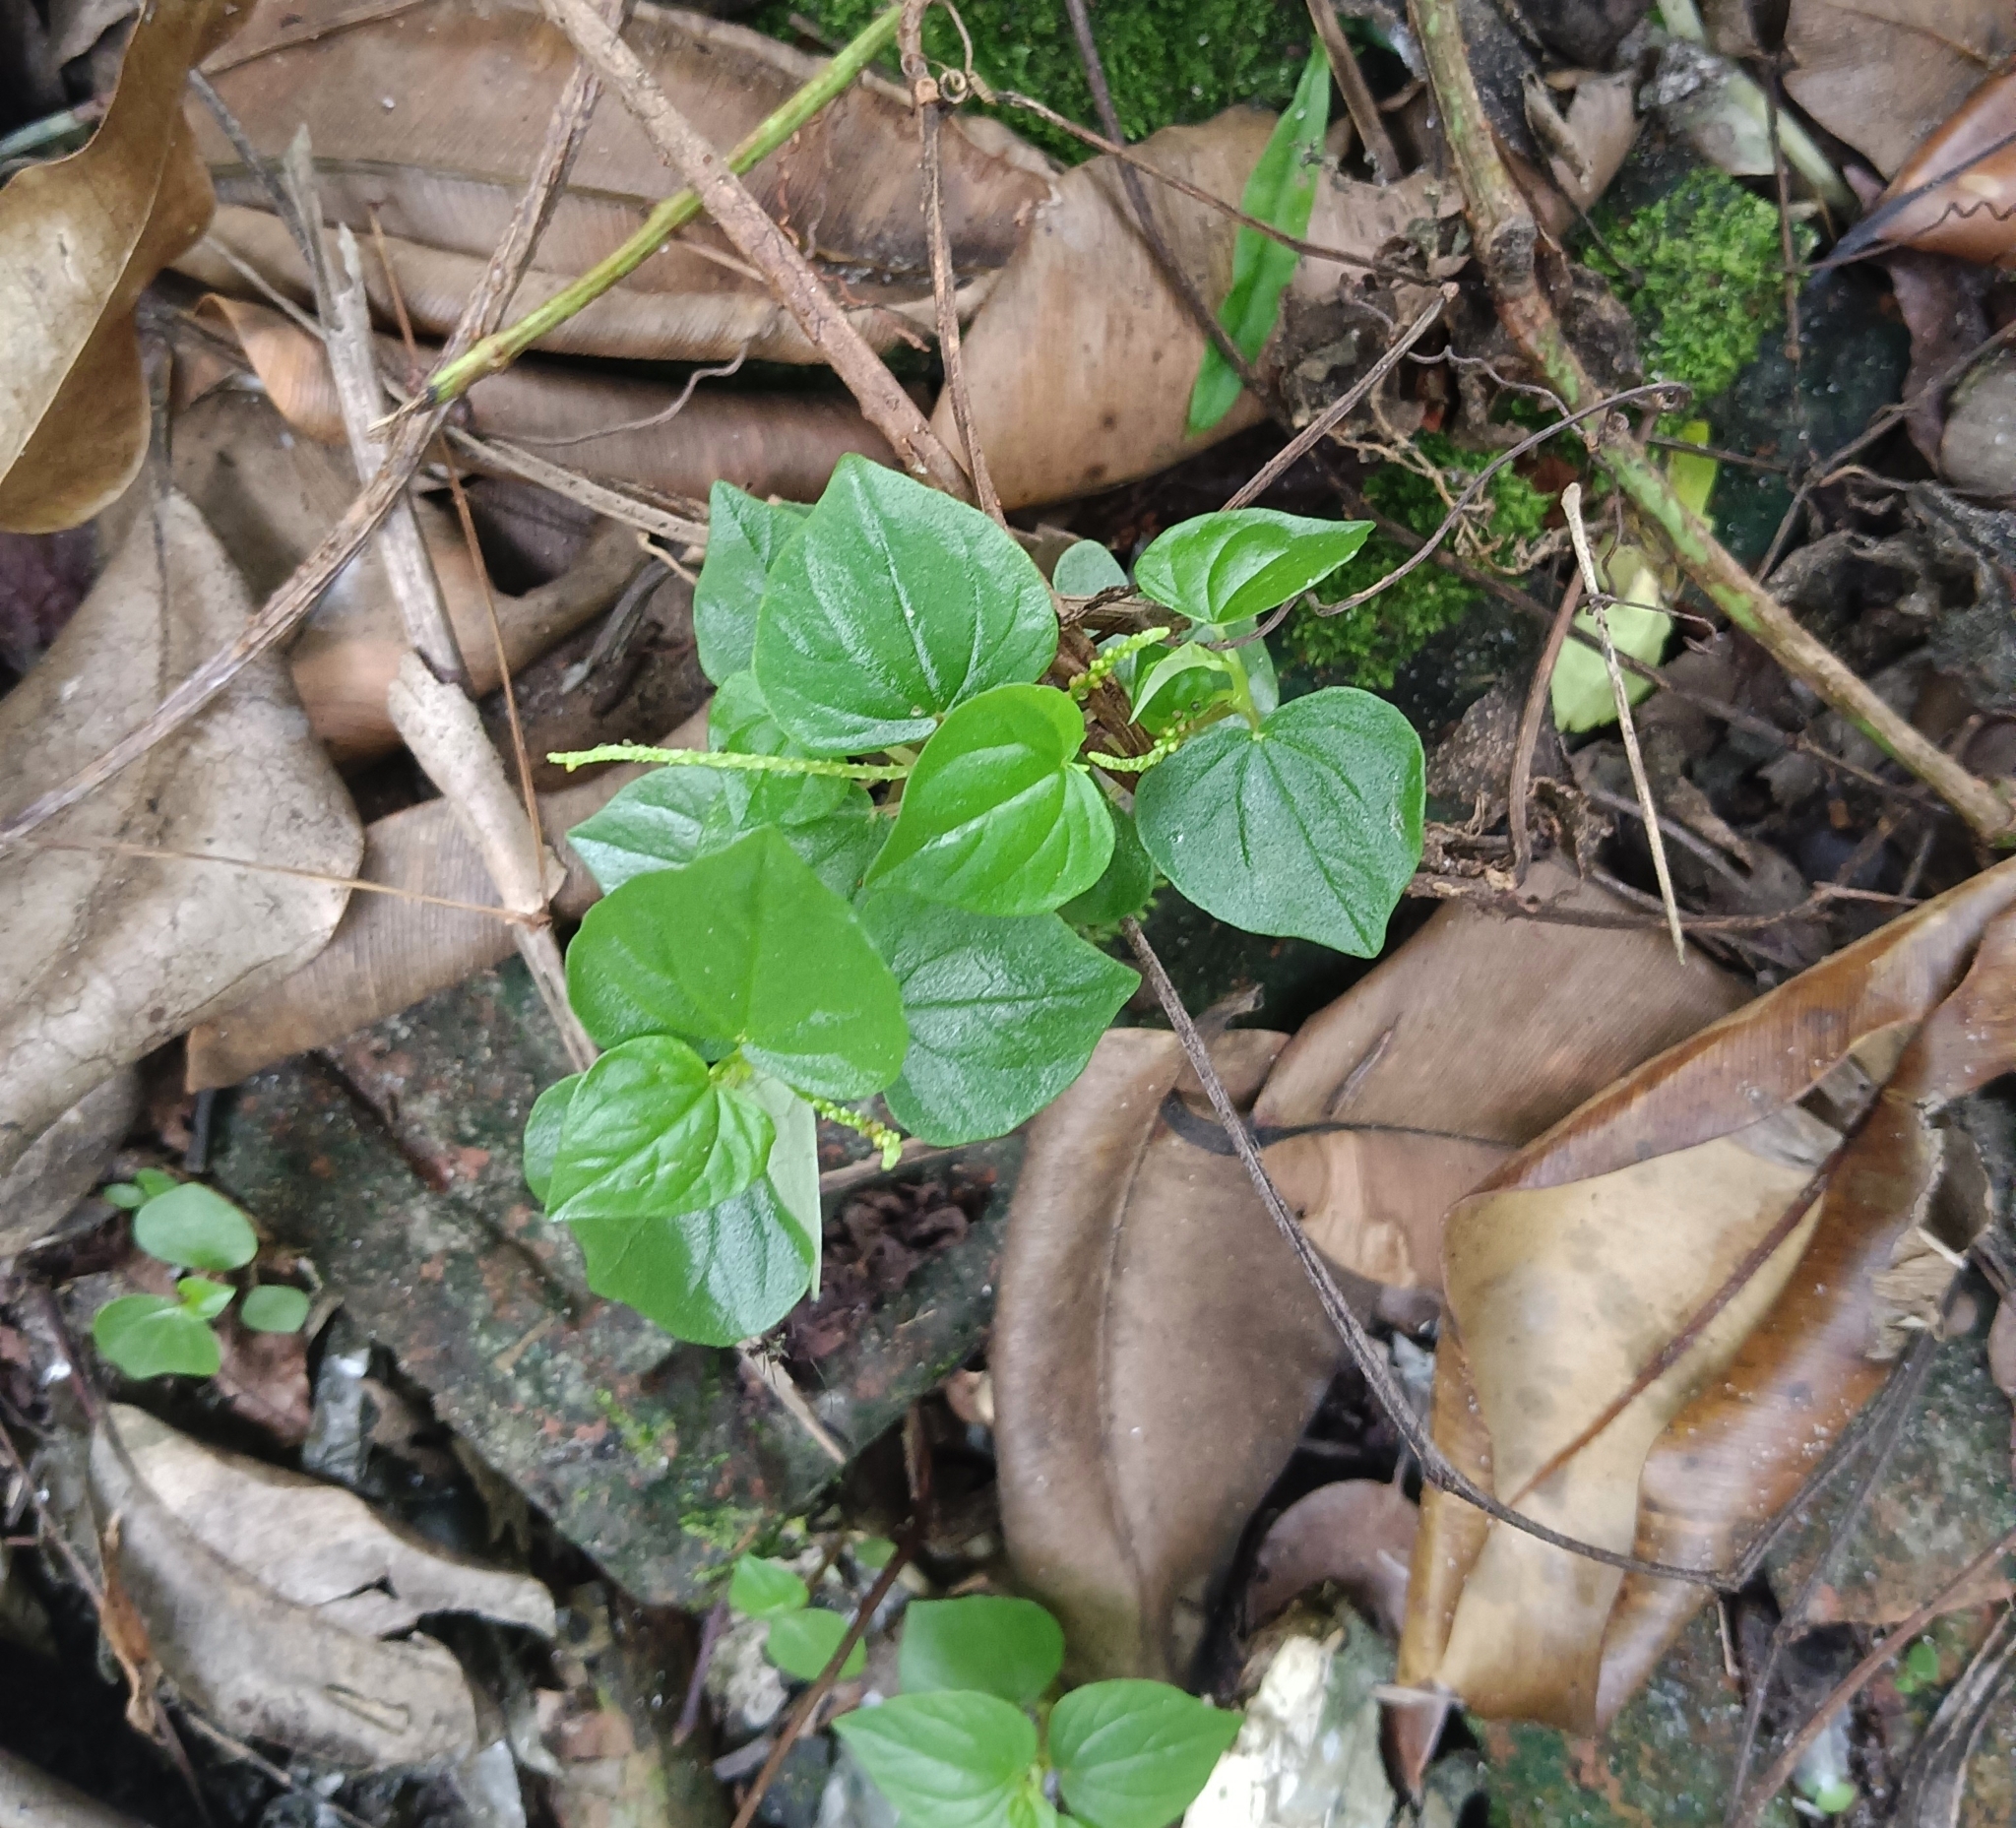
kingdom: Plantae
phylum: Tracheophyta
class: Magnoliopsida
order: Piperales
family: Piperaceae
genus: Peperomia
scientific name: Peperomia pellucida
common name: Man to man
